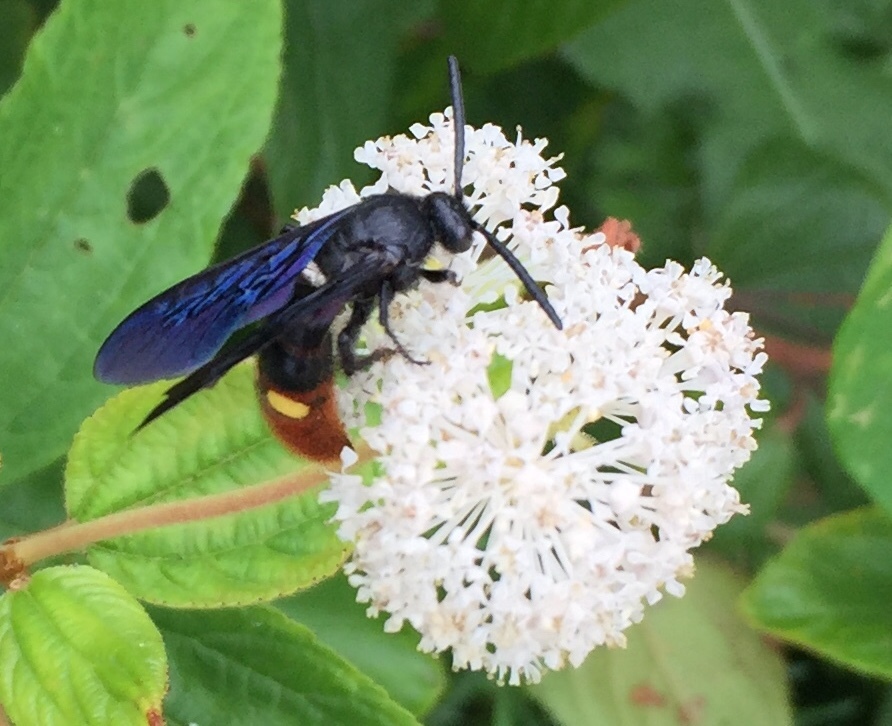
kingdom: Animalia
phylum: Arthropoda
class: Insecta
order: Hymenoptera
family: Scoliidae
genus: Scolia
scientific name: Scolia dubia
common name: Blue-winged scoliid wasp
